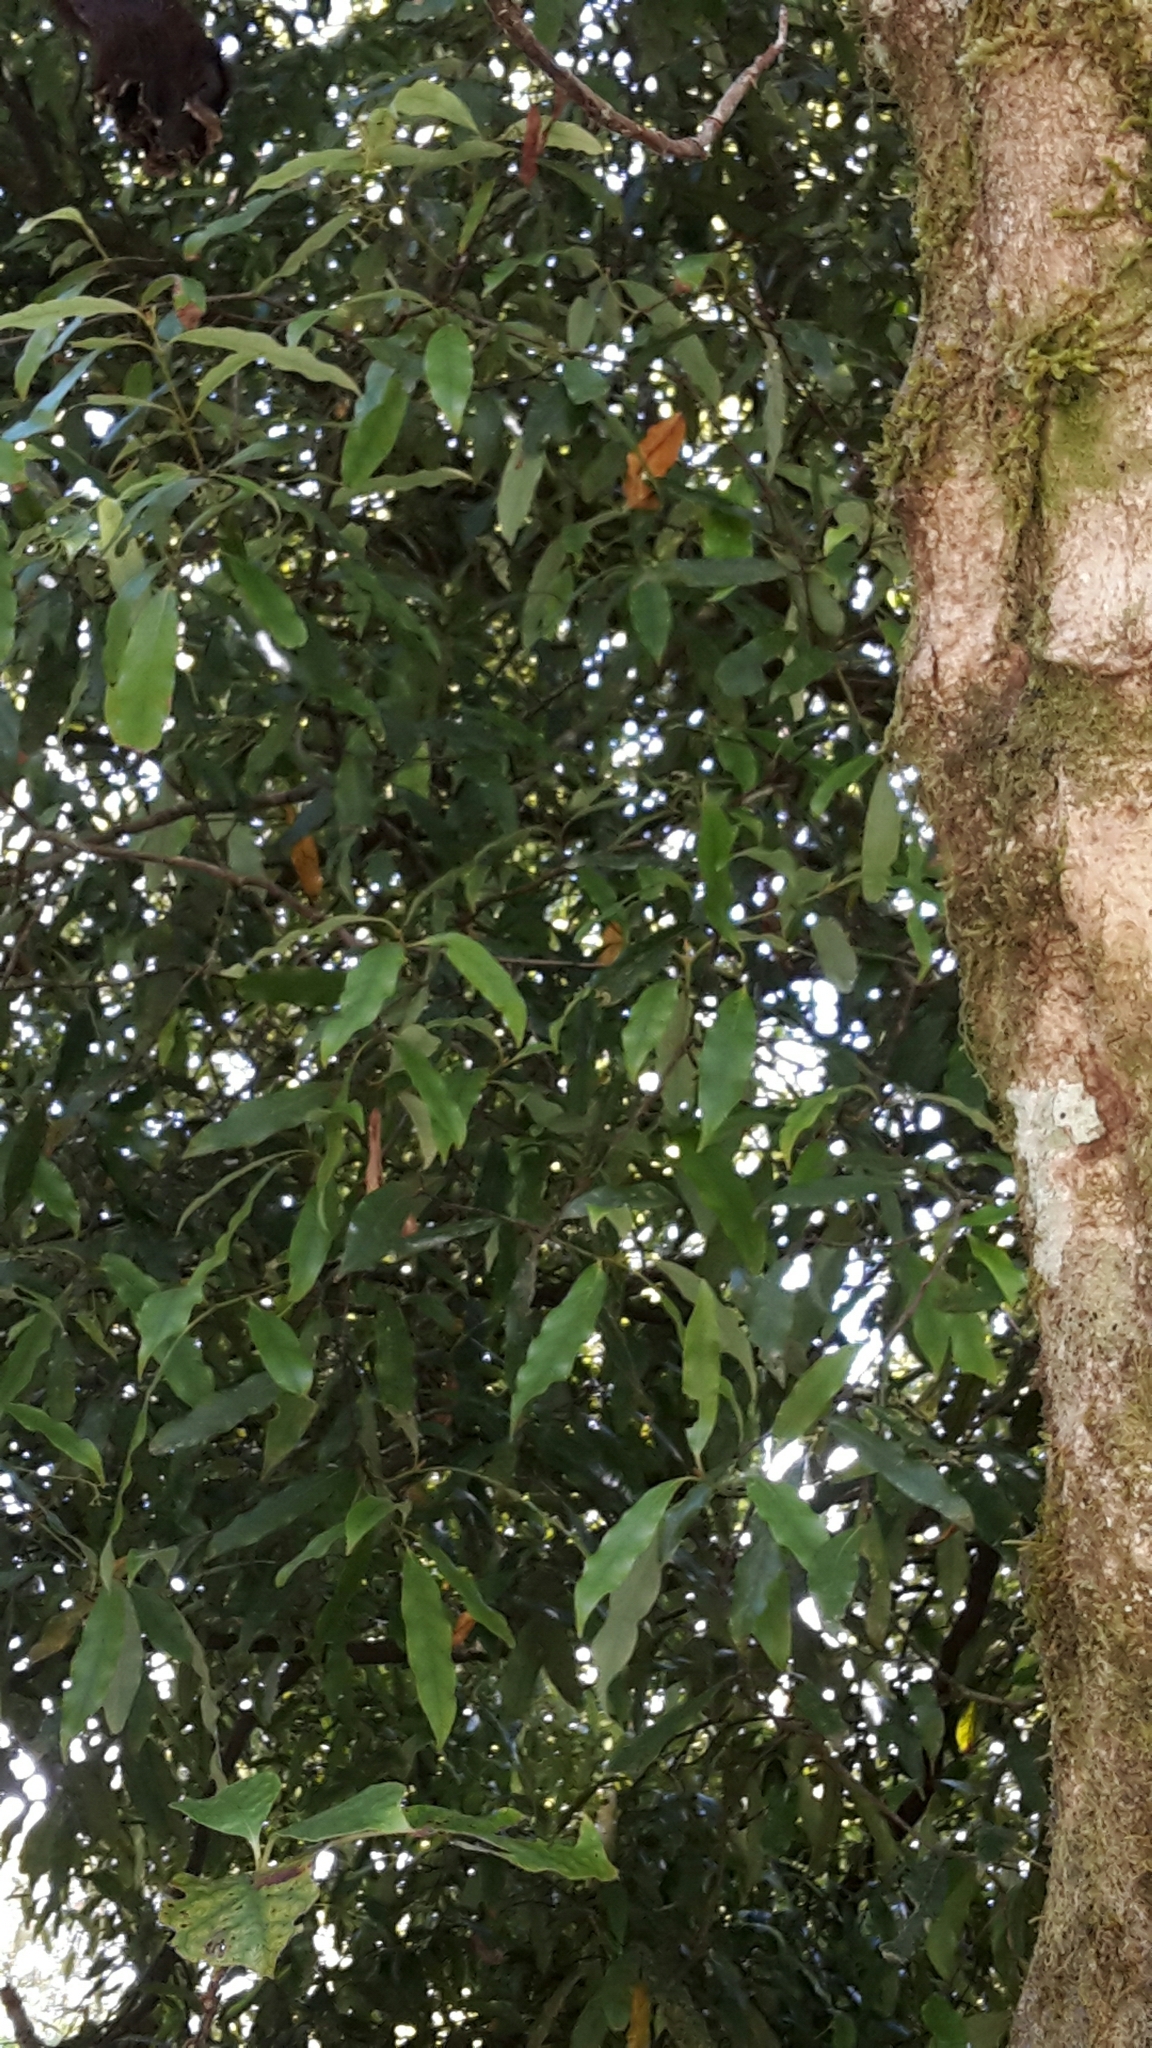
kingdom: Plantae
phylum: Tracheophyta
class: Magnoliopsida
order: Laurales
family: Lauraceae
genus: Beilschmiedia
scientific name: Beilschmiedia tawa
